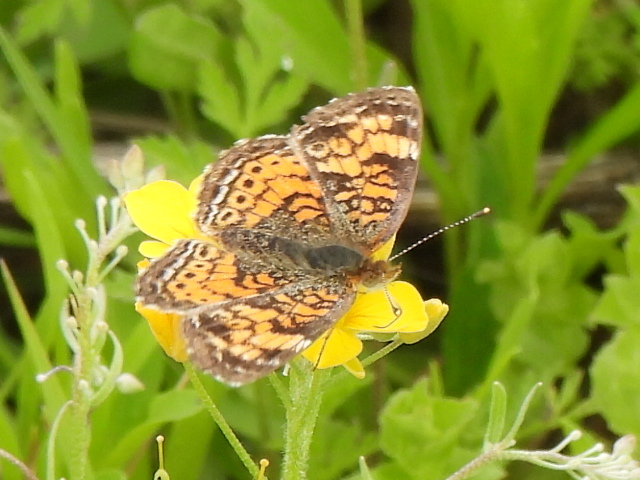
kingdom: Animalia
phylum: Arthropoda
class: Insecta
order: Lepidoptera
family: Nymphalidae
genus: Phyciodes
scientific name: Phyciodes tharos
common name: Pearl crescent
